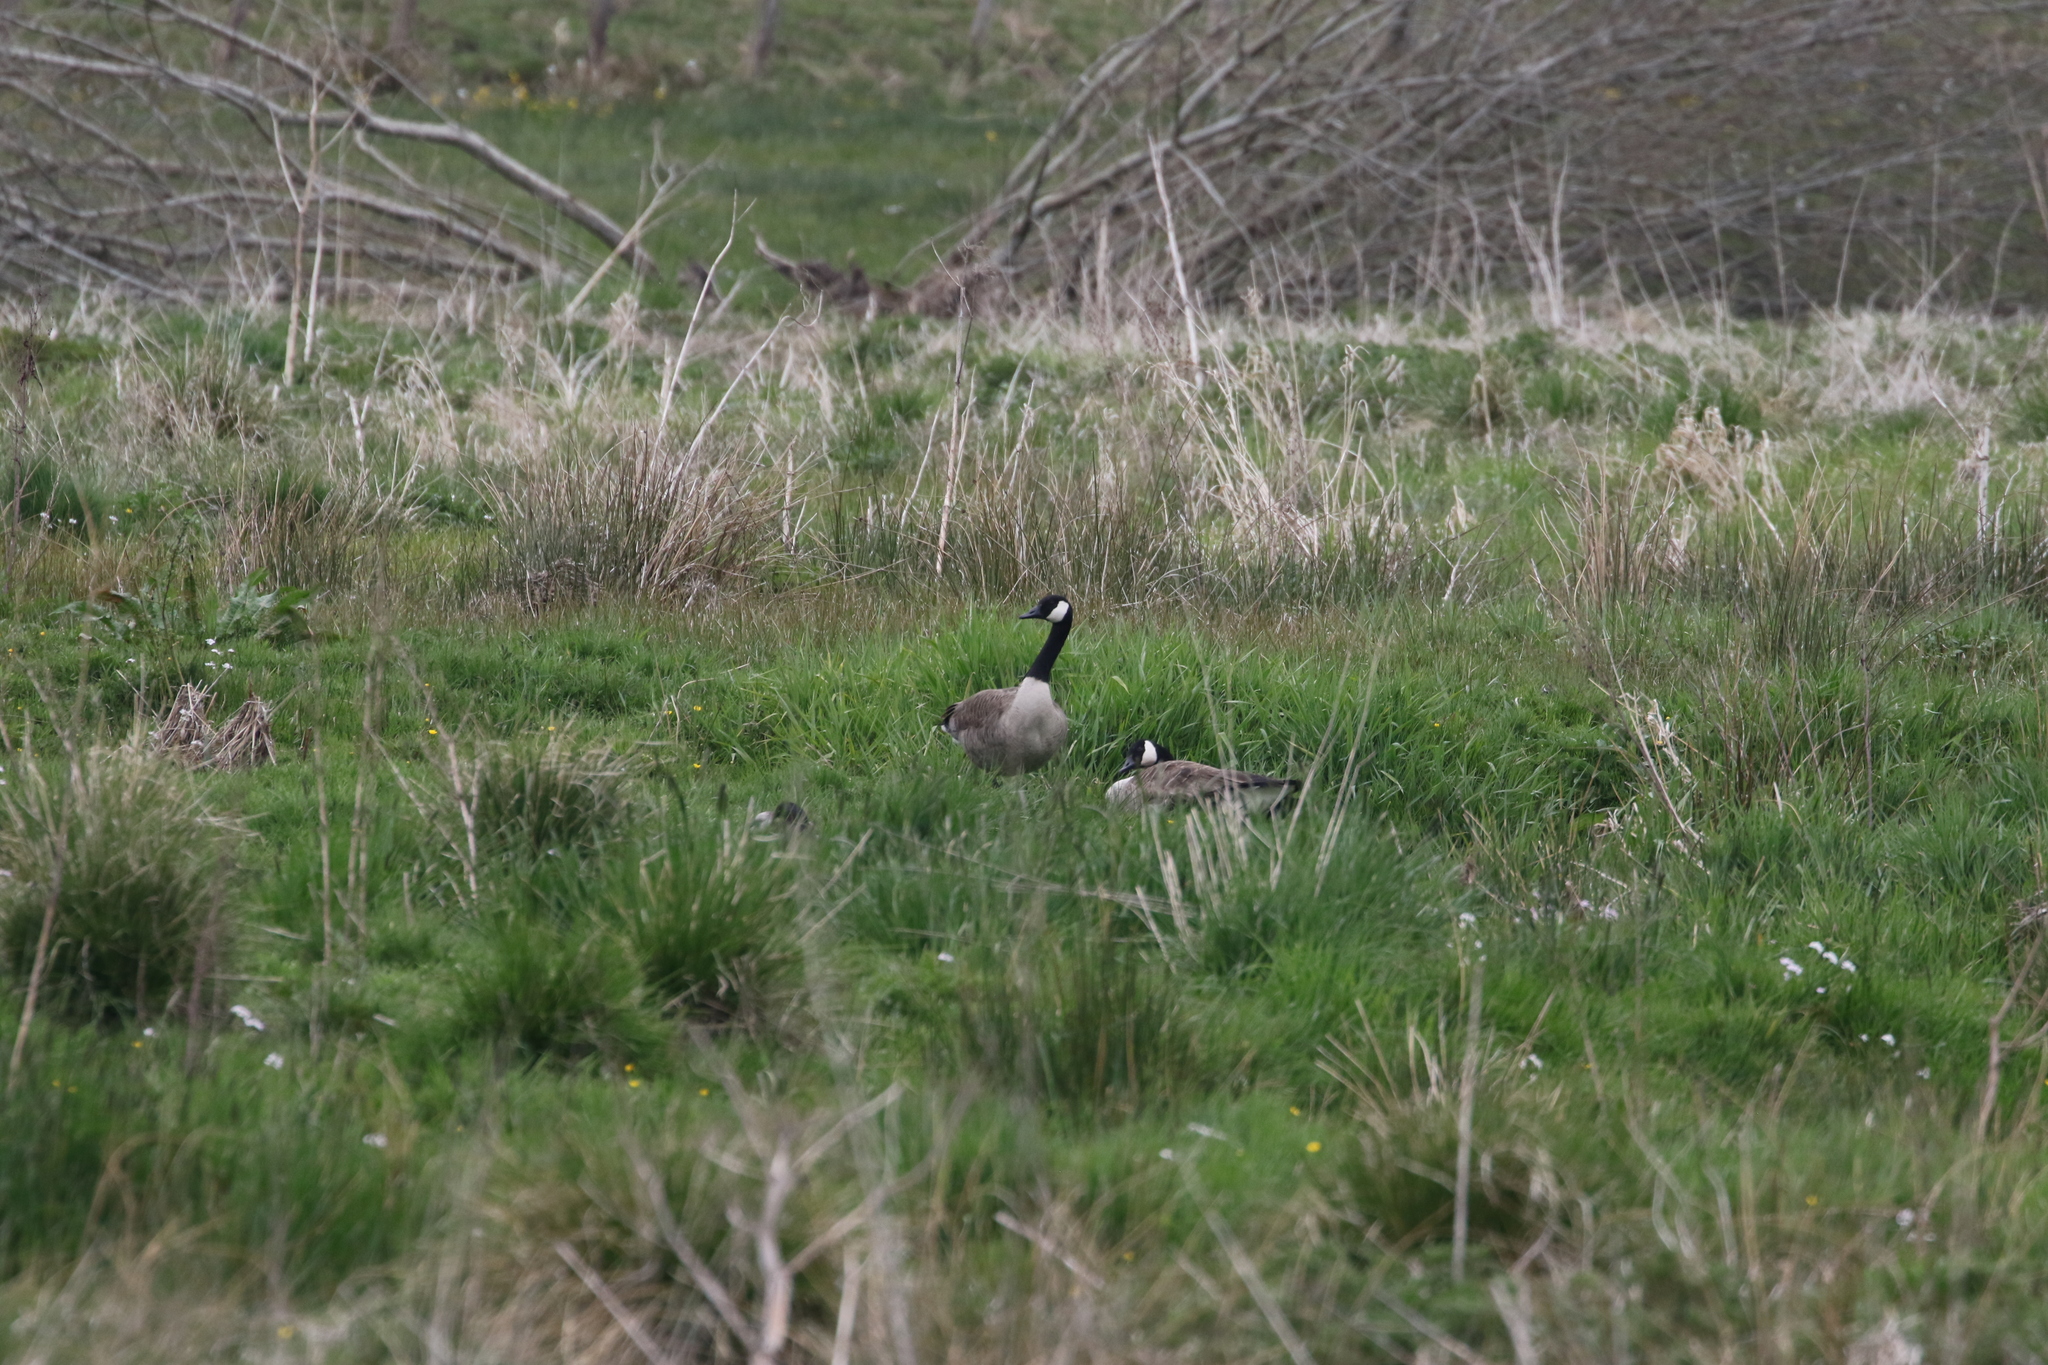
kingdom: Animalia
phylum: Chordata
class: Aves
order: Anseriformes
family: Anatidae
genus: Branta
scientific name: Branta canadensis
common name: Canada goose
